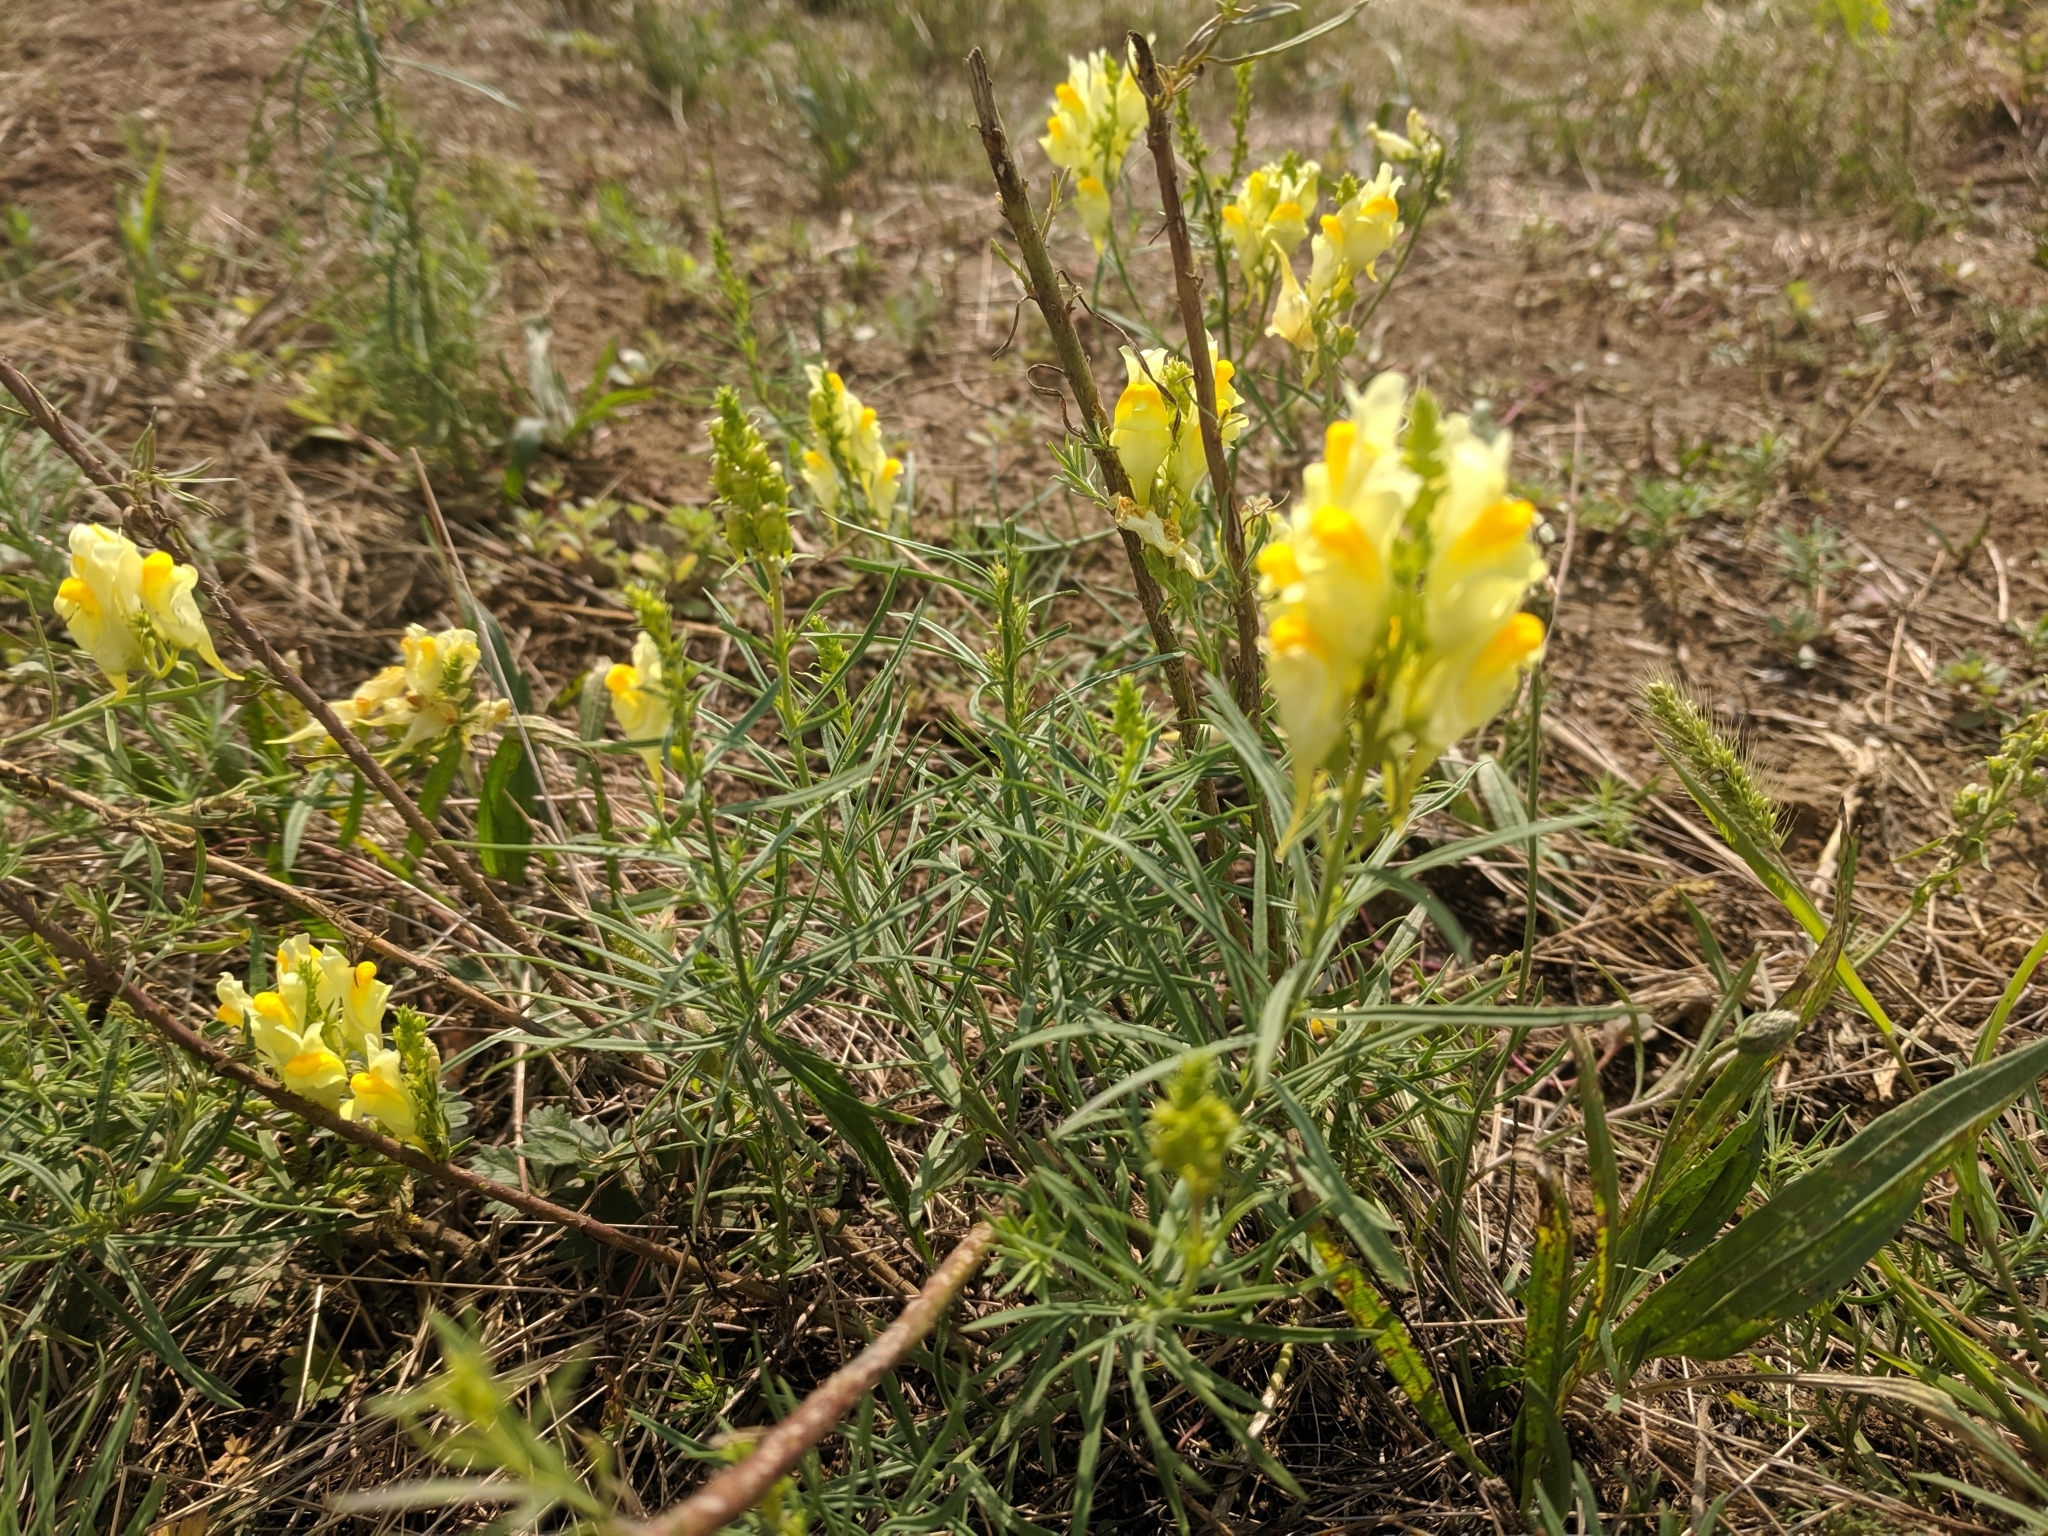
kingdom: Plantae
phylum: Tracheophyta
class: Magnoliopsida
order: Lamiales
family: Plantaginaceae
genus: Linaria
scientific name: Linaria vulgaris
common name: Butter and eggs
